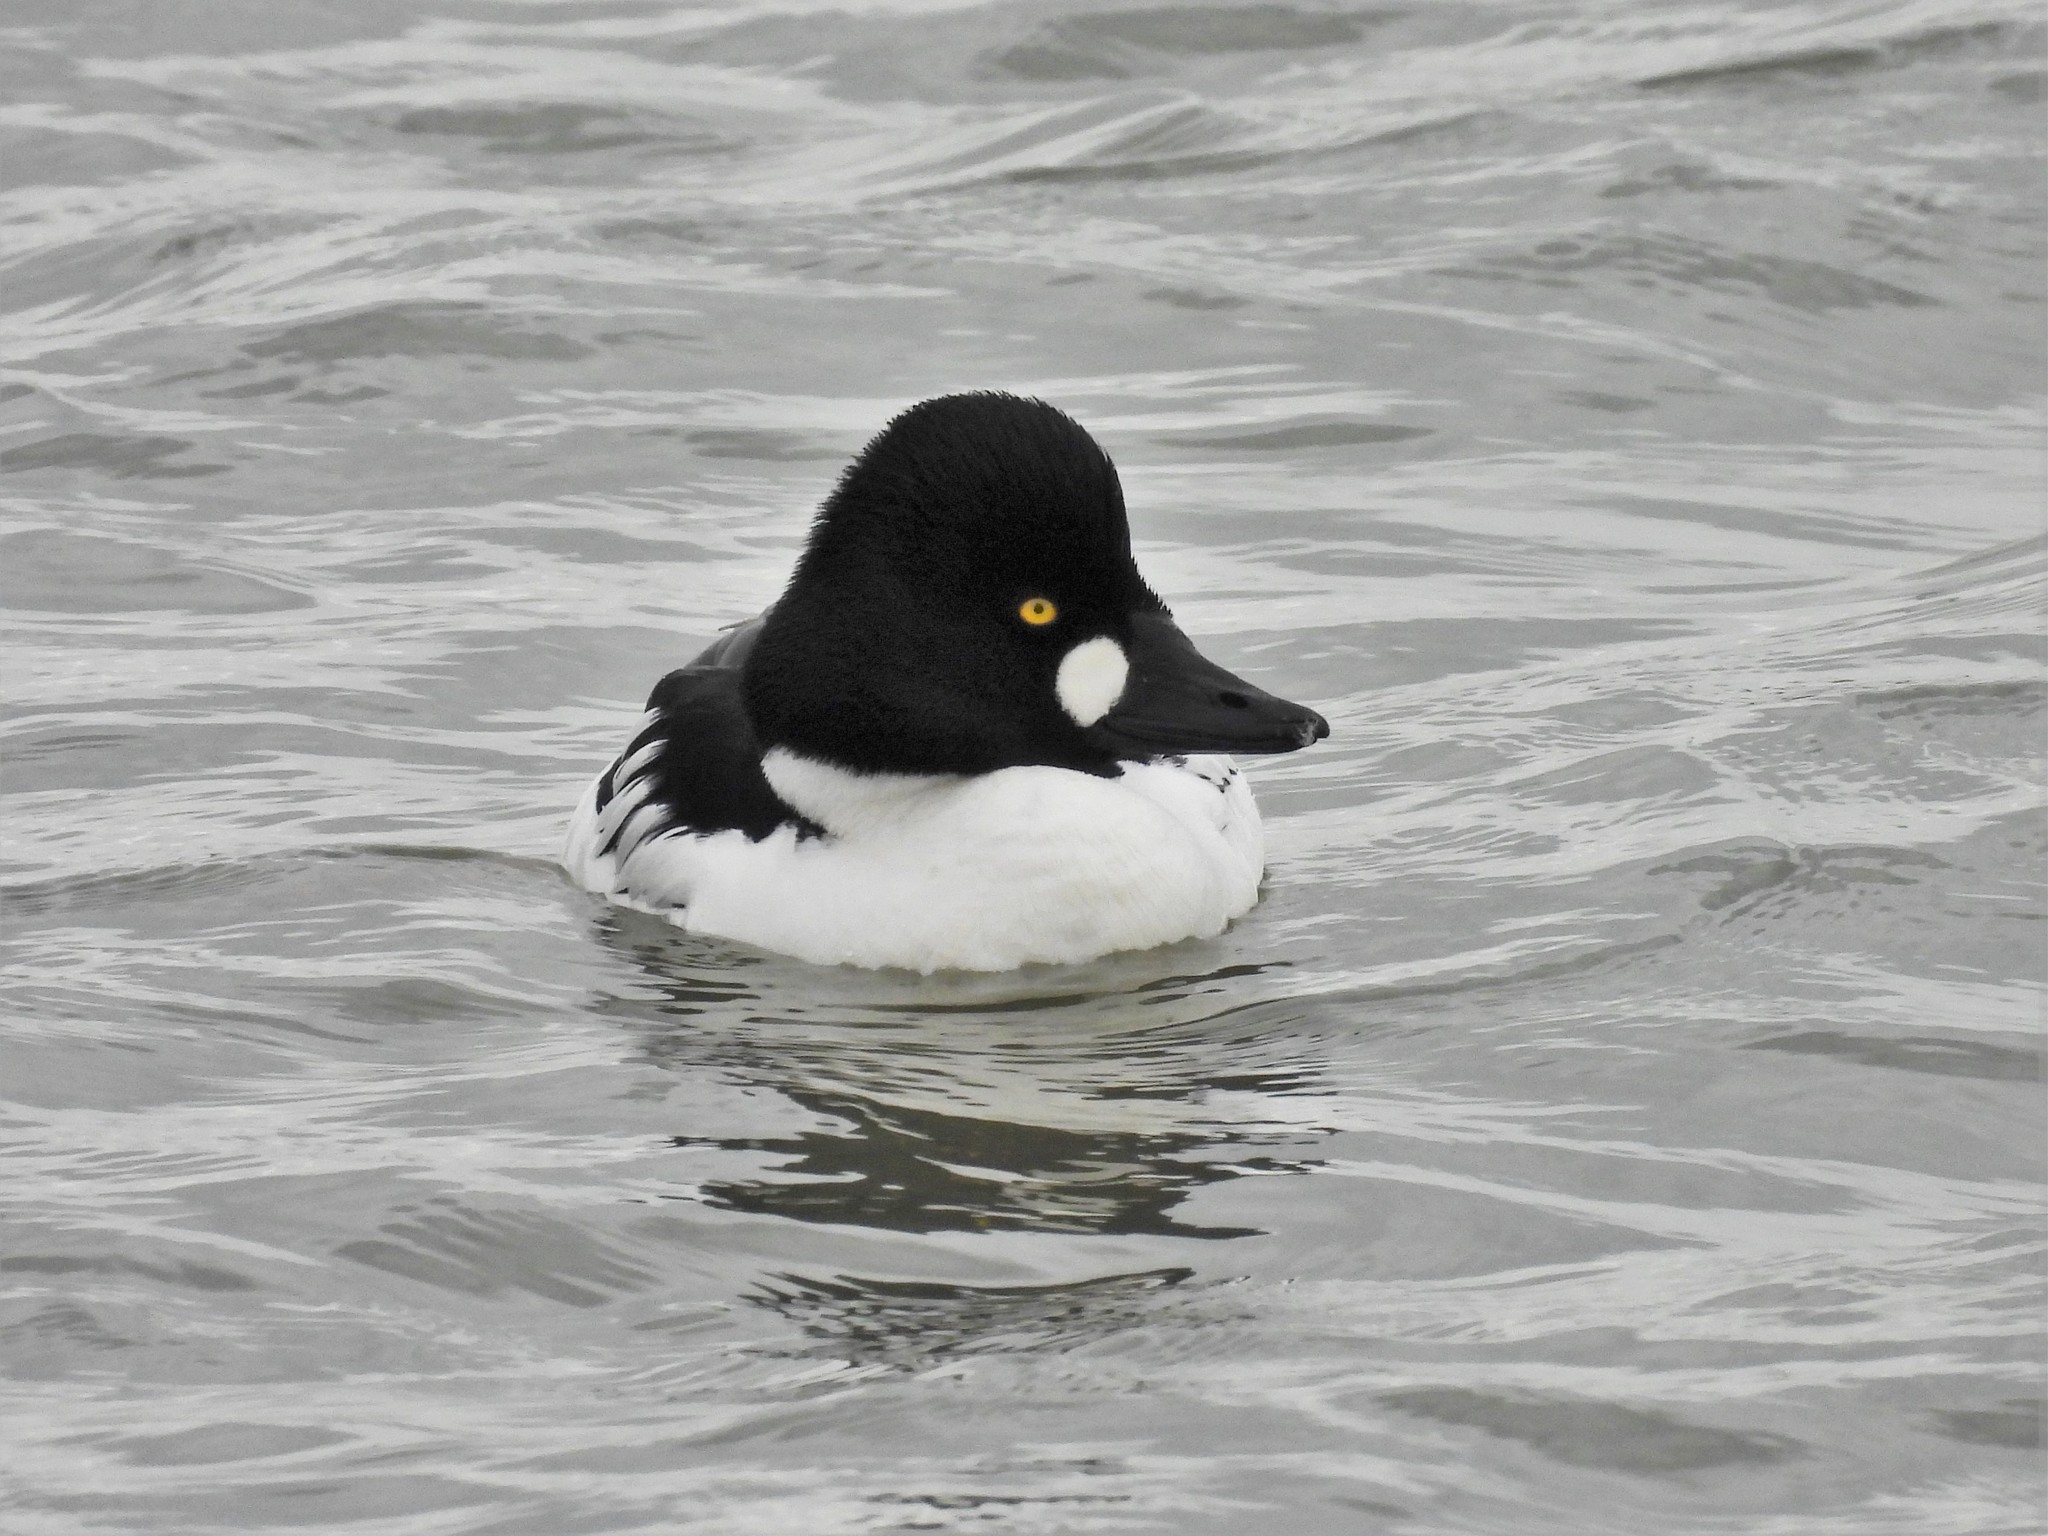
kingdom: Animalia
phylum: Chordata
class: Aves
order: Anseriformes
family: Anatidae
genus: Bucephala
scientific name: Bucephala clangula
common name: Common goldeneye
